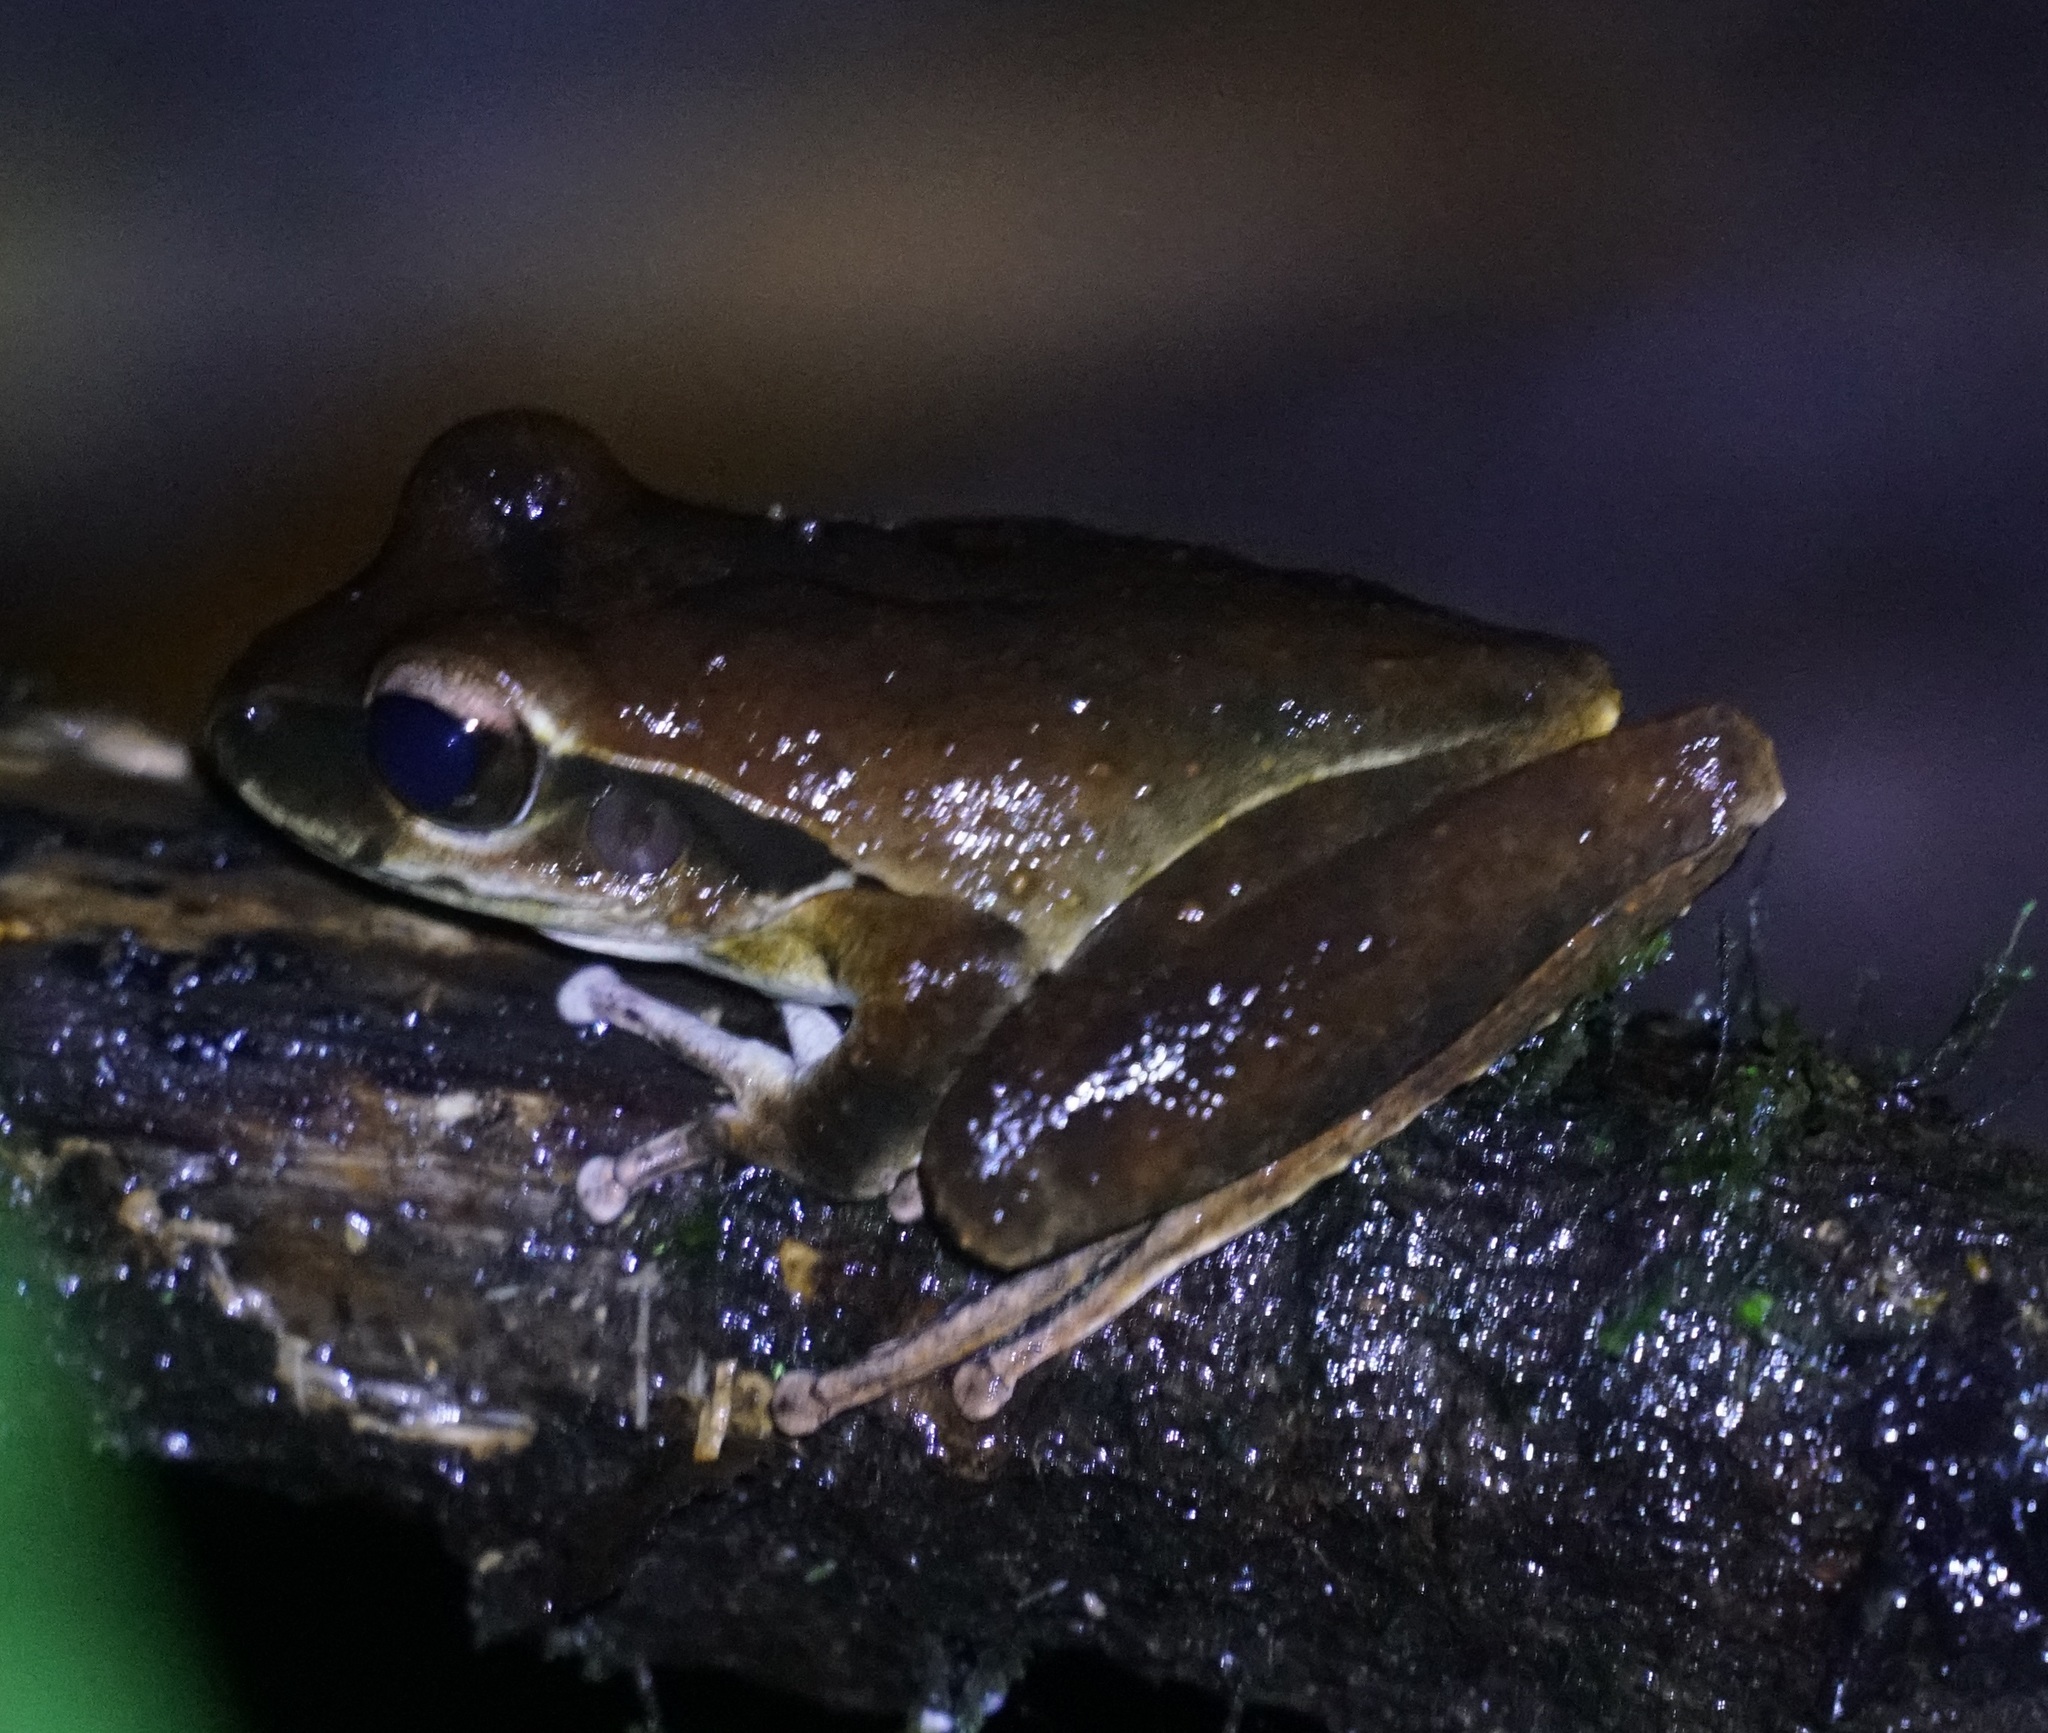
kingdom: Animalia
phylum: Chordata
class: Amphibia
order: Anura
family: Hylidae
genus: Ranoidea
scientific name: Ranoidea
